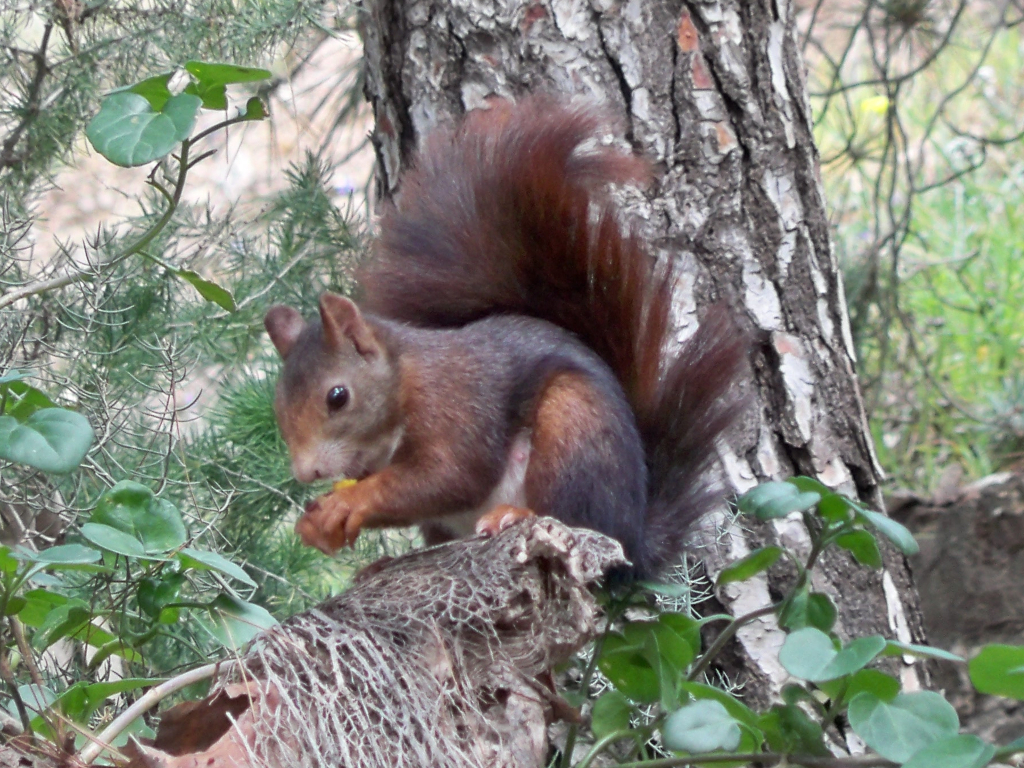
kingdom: Animalia
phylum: Chordata
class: Mammalia
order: Rodentia
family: Sciuridae
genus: Sciurus
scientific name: Sciurus vulgaris
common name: Eurasian red squirrel
